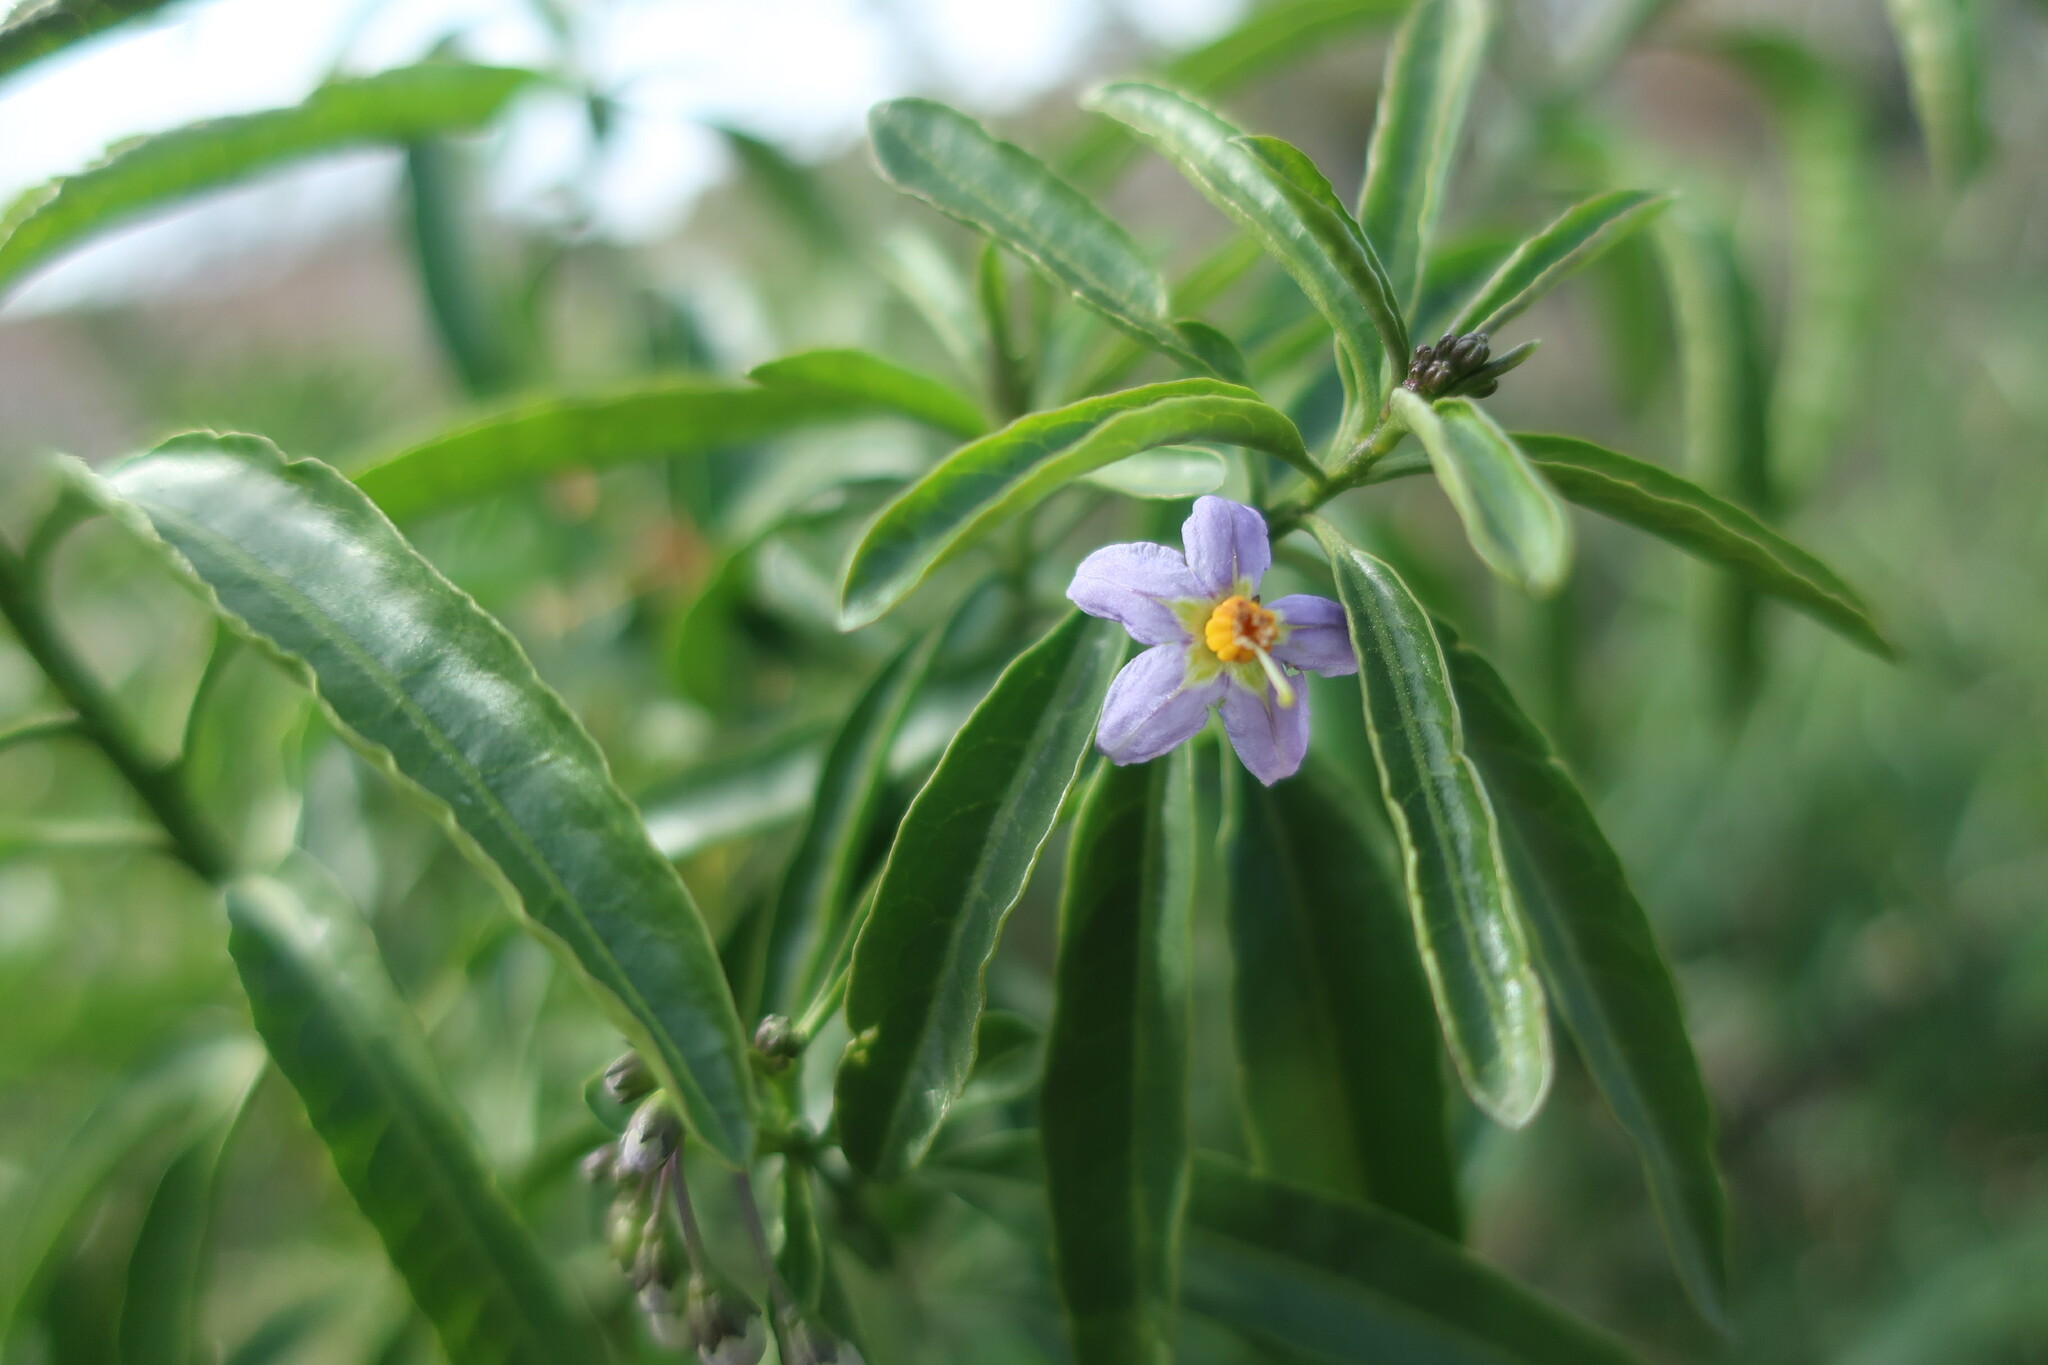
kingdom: Plantae
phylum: Tracheophyta
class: Magnoliopsida
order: Solanales
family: Solanaceae
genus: Solanum
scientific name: Solanum crispum
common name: Chilean nightshade
